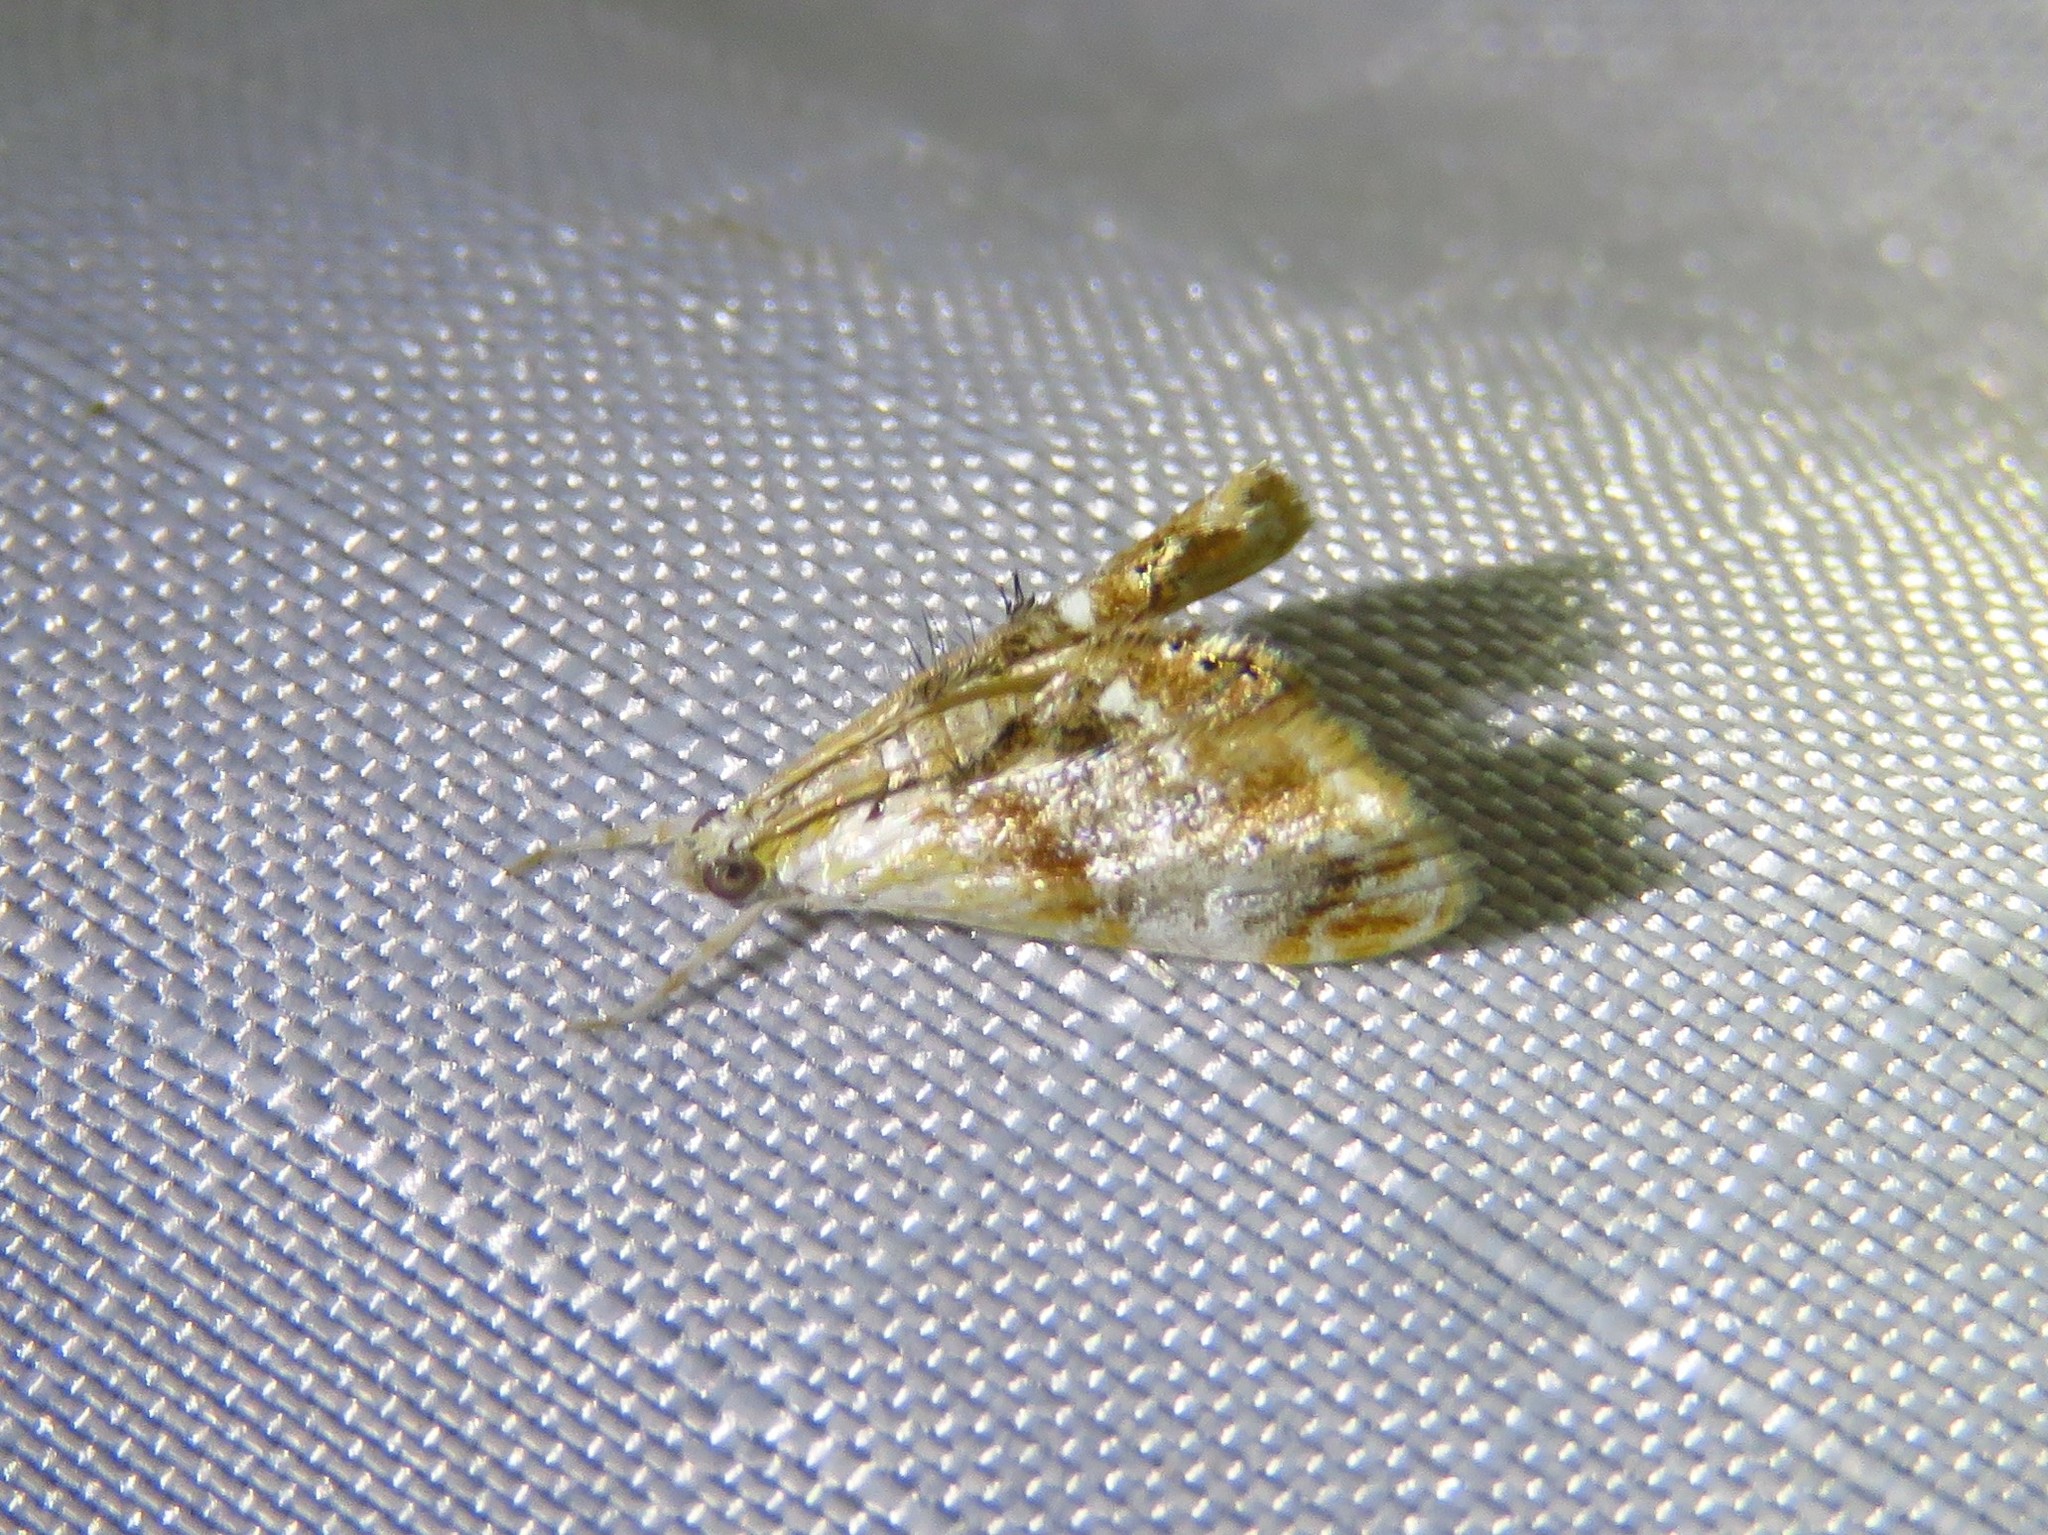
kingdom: Animalia
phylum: Arthropoda
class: Insecta
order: Lepidoptera
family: Crambidae
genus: Dicymolomia
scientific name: Dicymolomia julianalis
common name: Julia's dicymolomia moth
